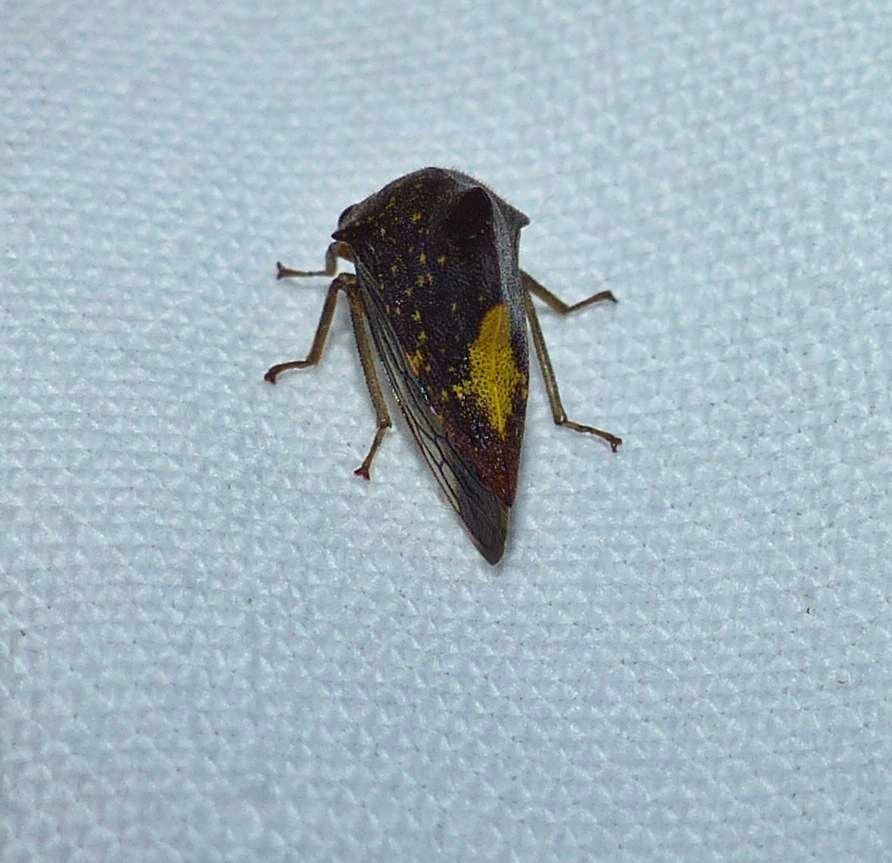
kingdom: Animalia
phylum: Arthropoda
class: Insecta
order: Hemiptera
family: Membracidae
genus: Telamona
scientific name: Telamona monticola
